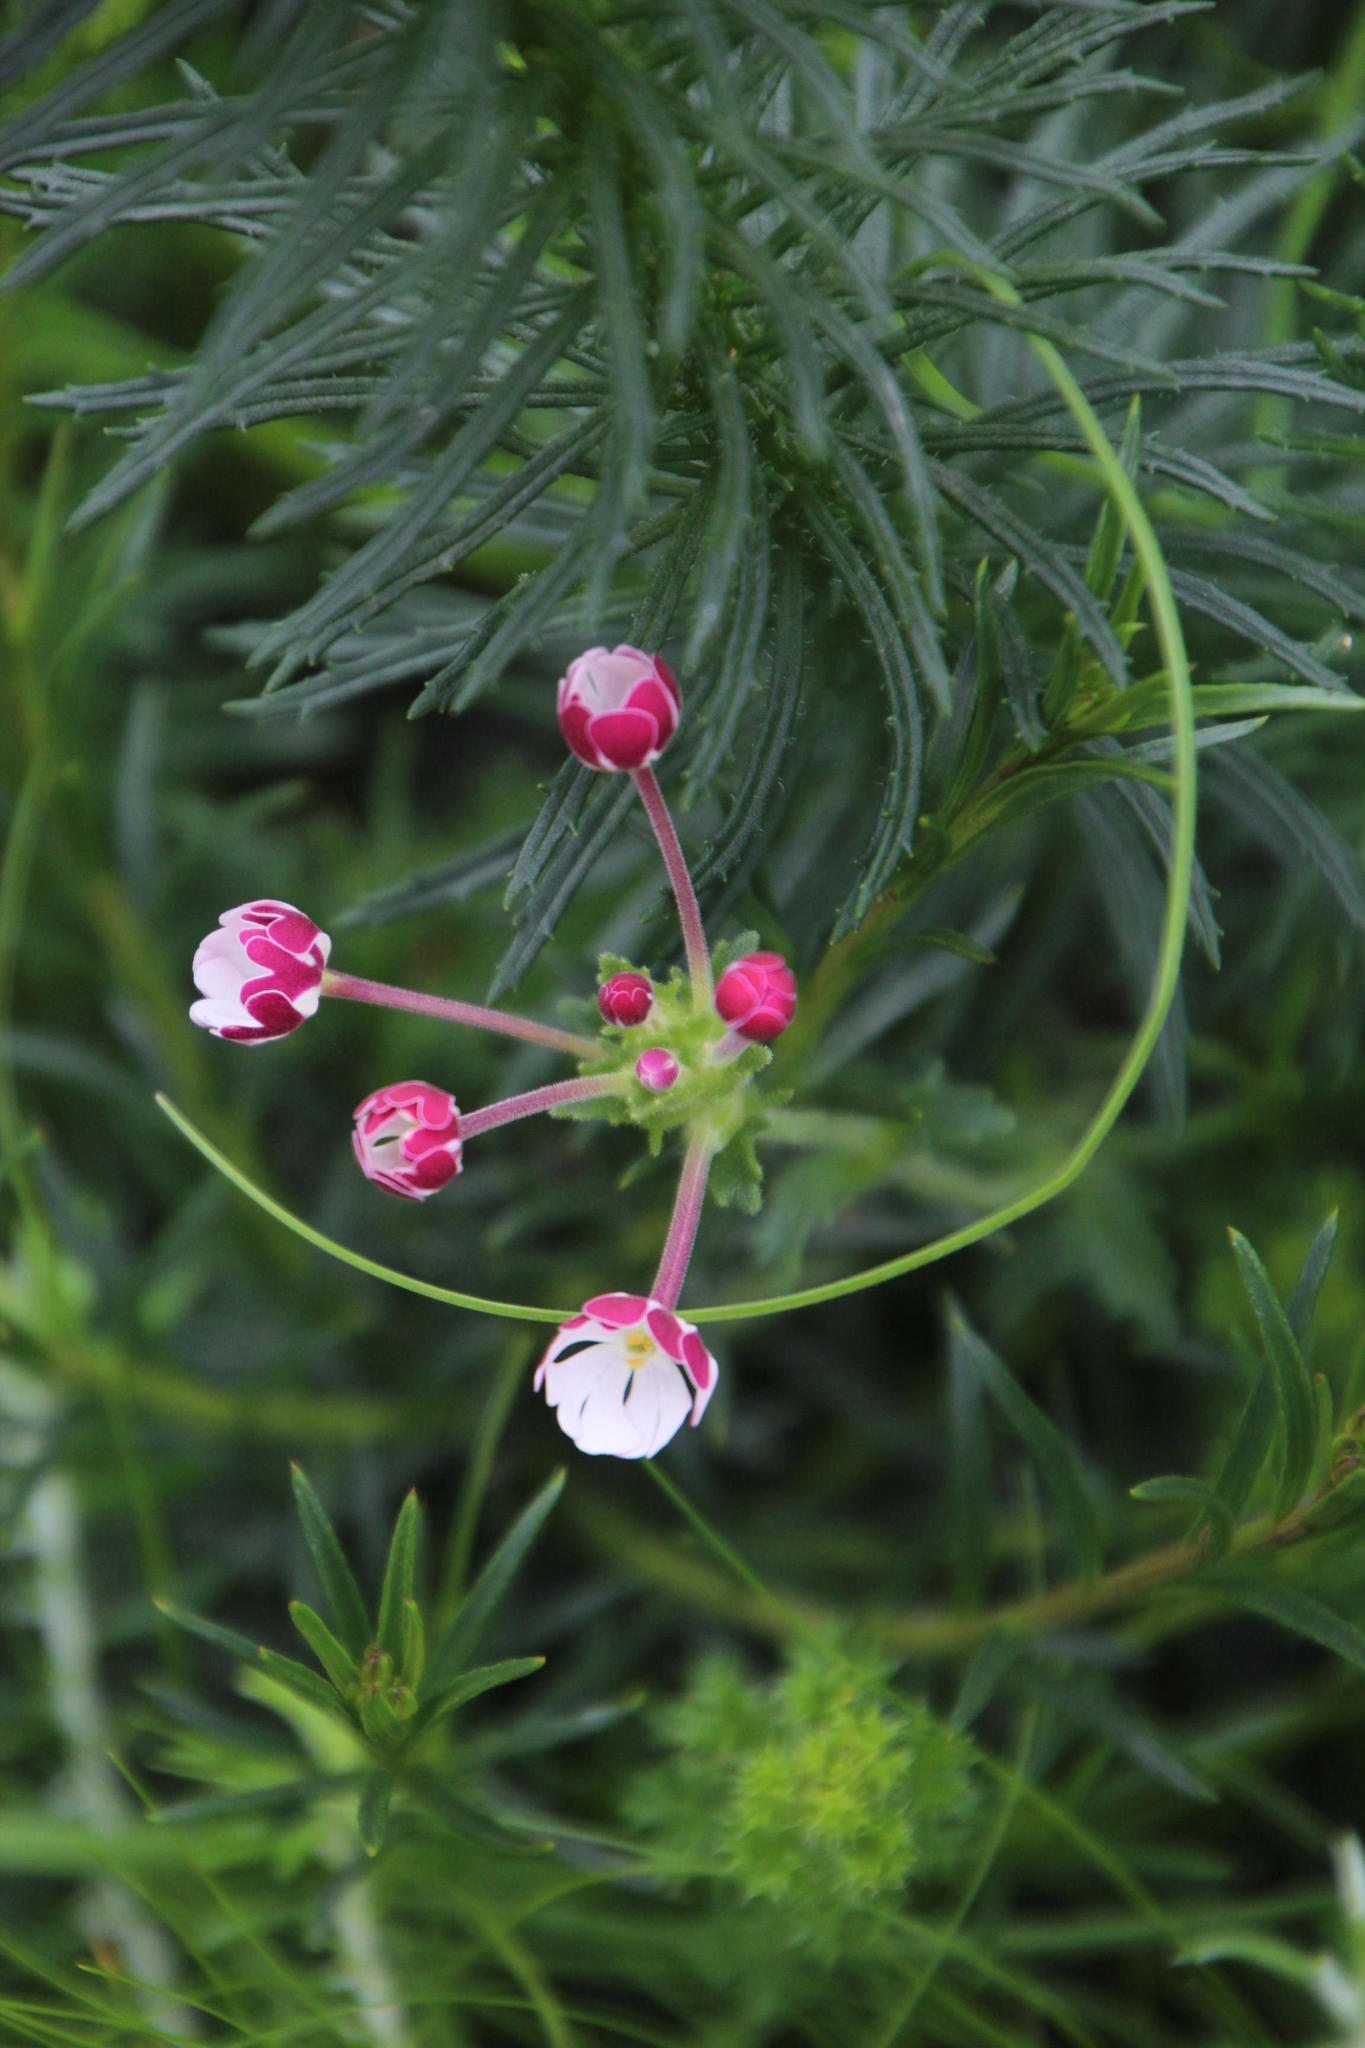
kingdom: Plantae
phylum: Tracheophyta
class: Magnoliopsida
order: Lamiales
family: Scrophulariaceae
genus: Zaluzianskya
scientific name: Zaluzianskya capensis
